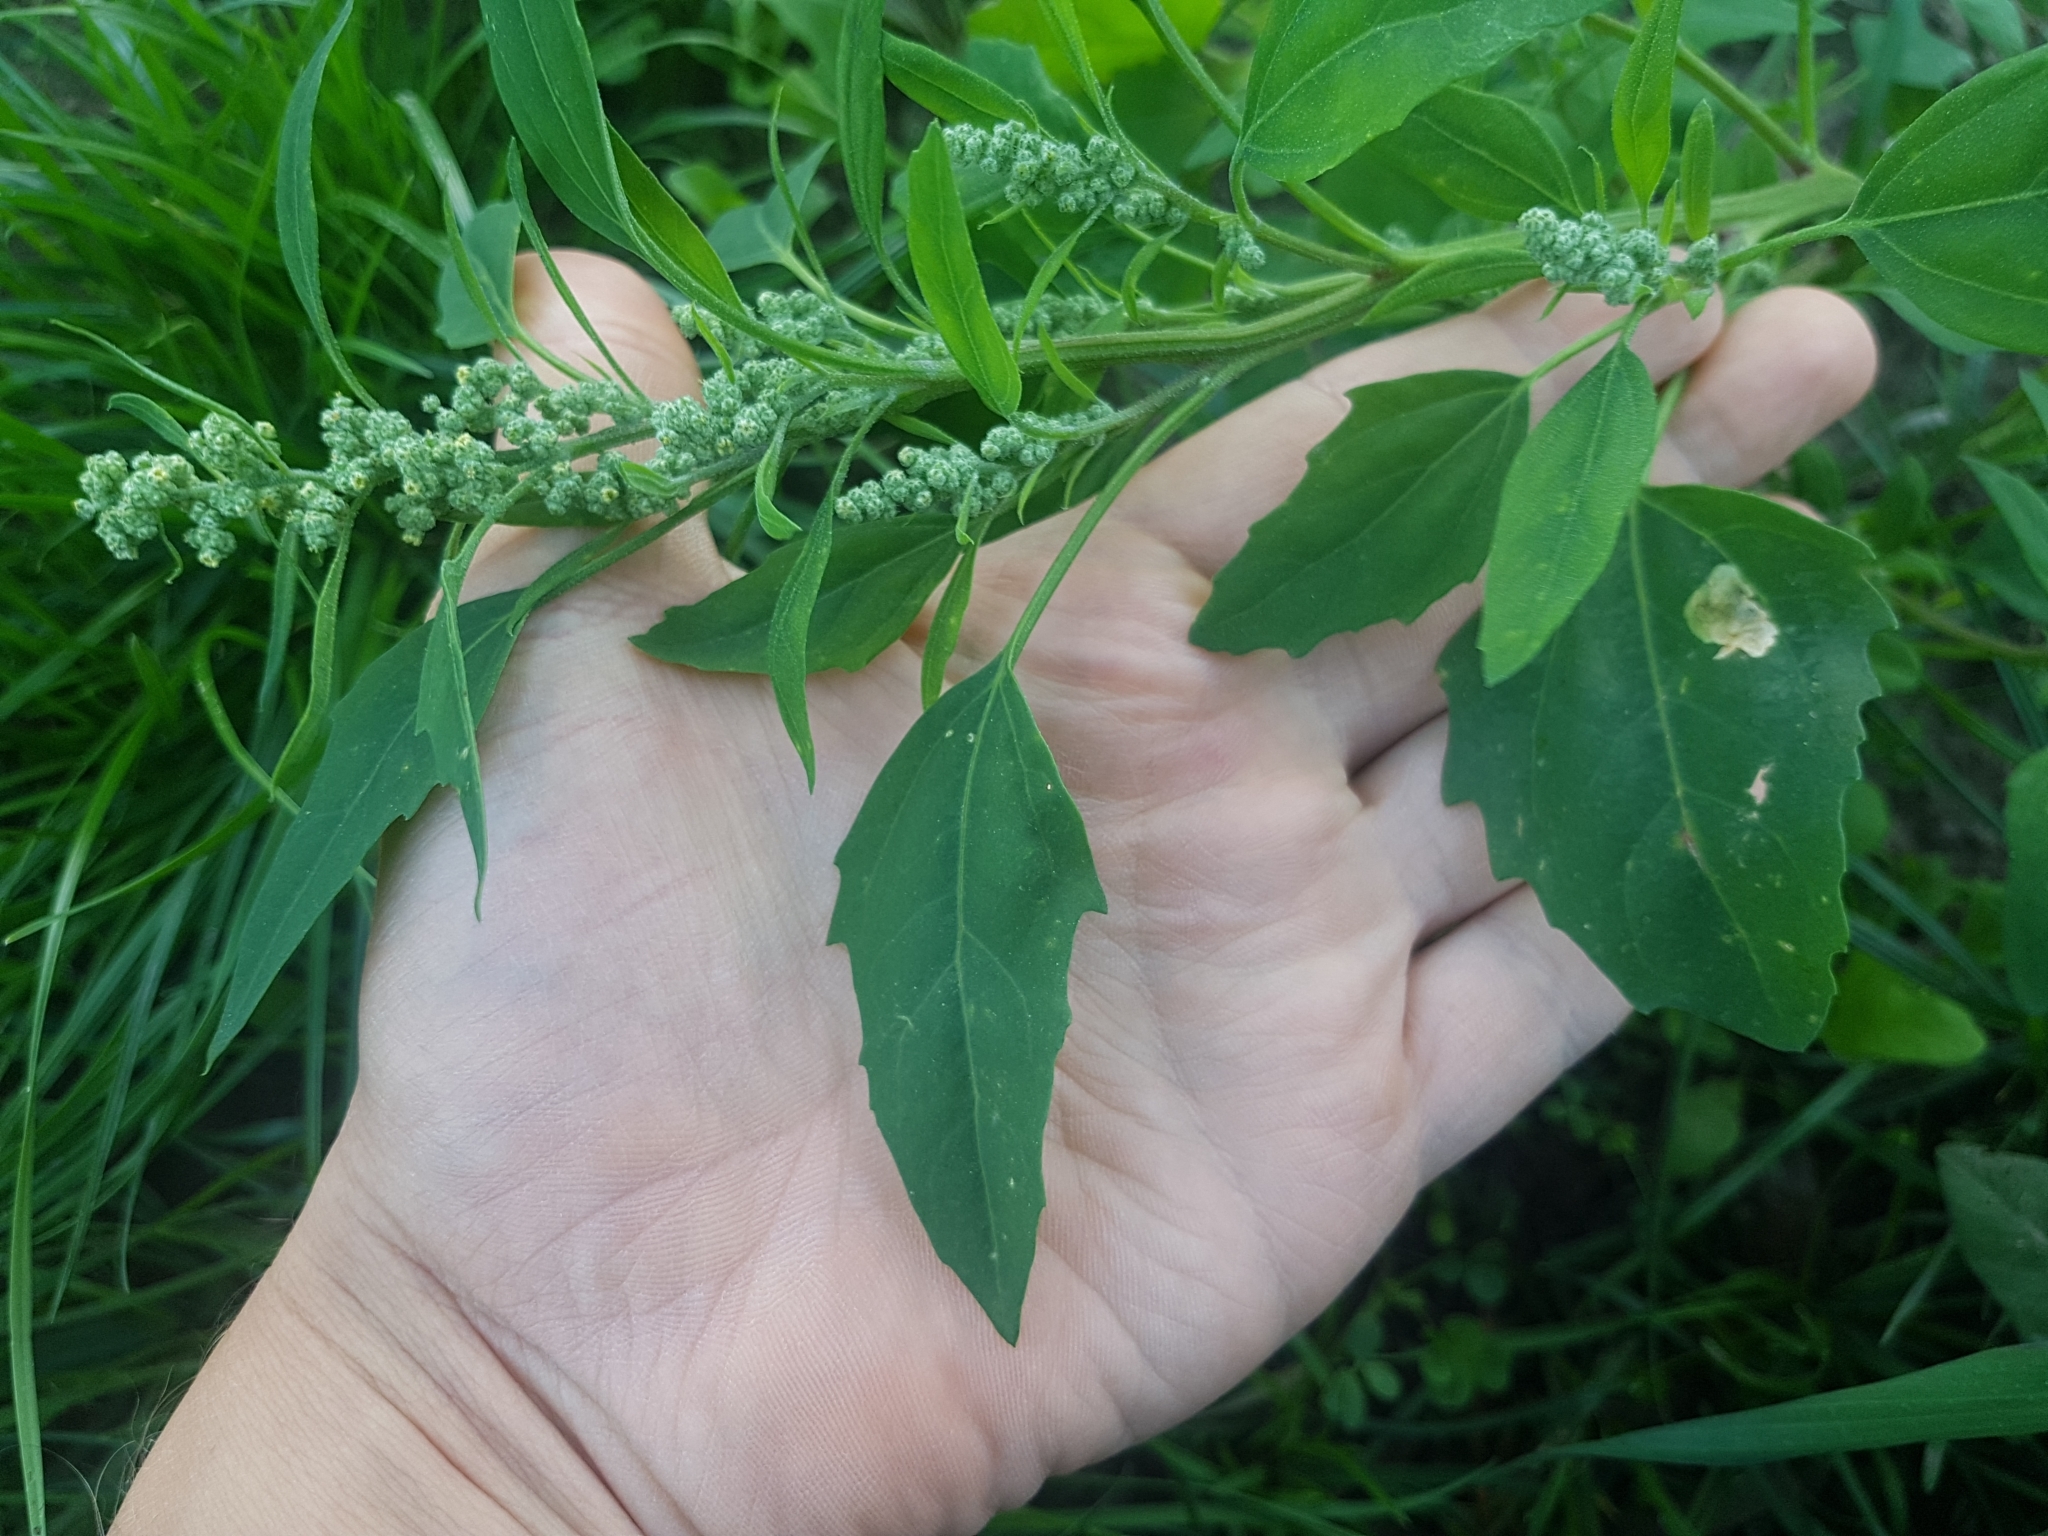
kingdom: Plantae
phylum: Tracheophyta
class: Magnoliopsida
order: Caryophyllales
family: Amaranthaceae
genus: Chenopodium
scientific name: Chenopodium album
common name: Fat-hen
